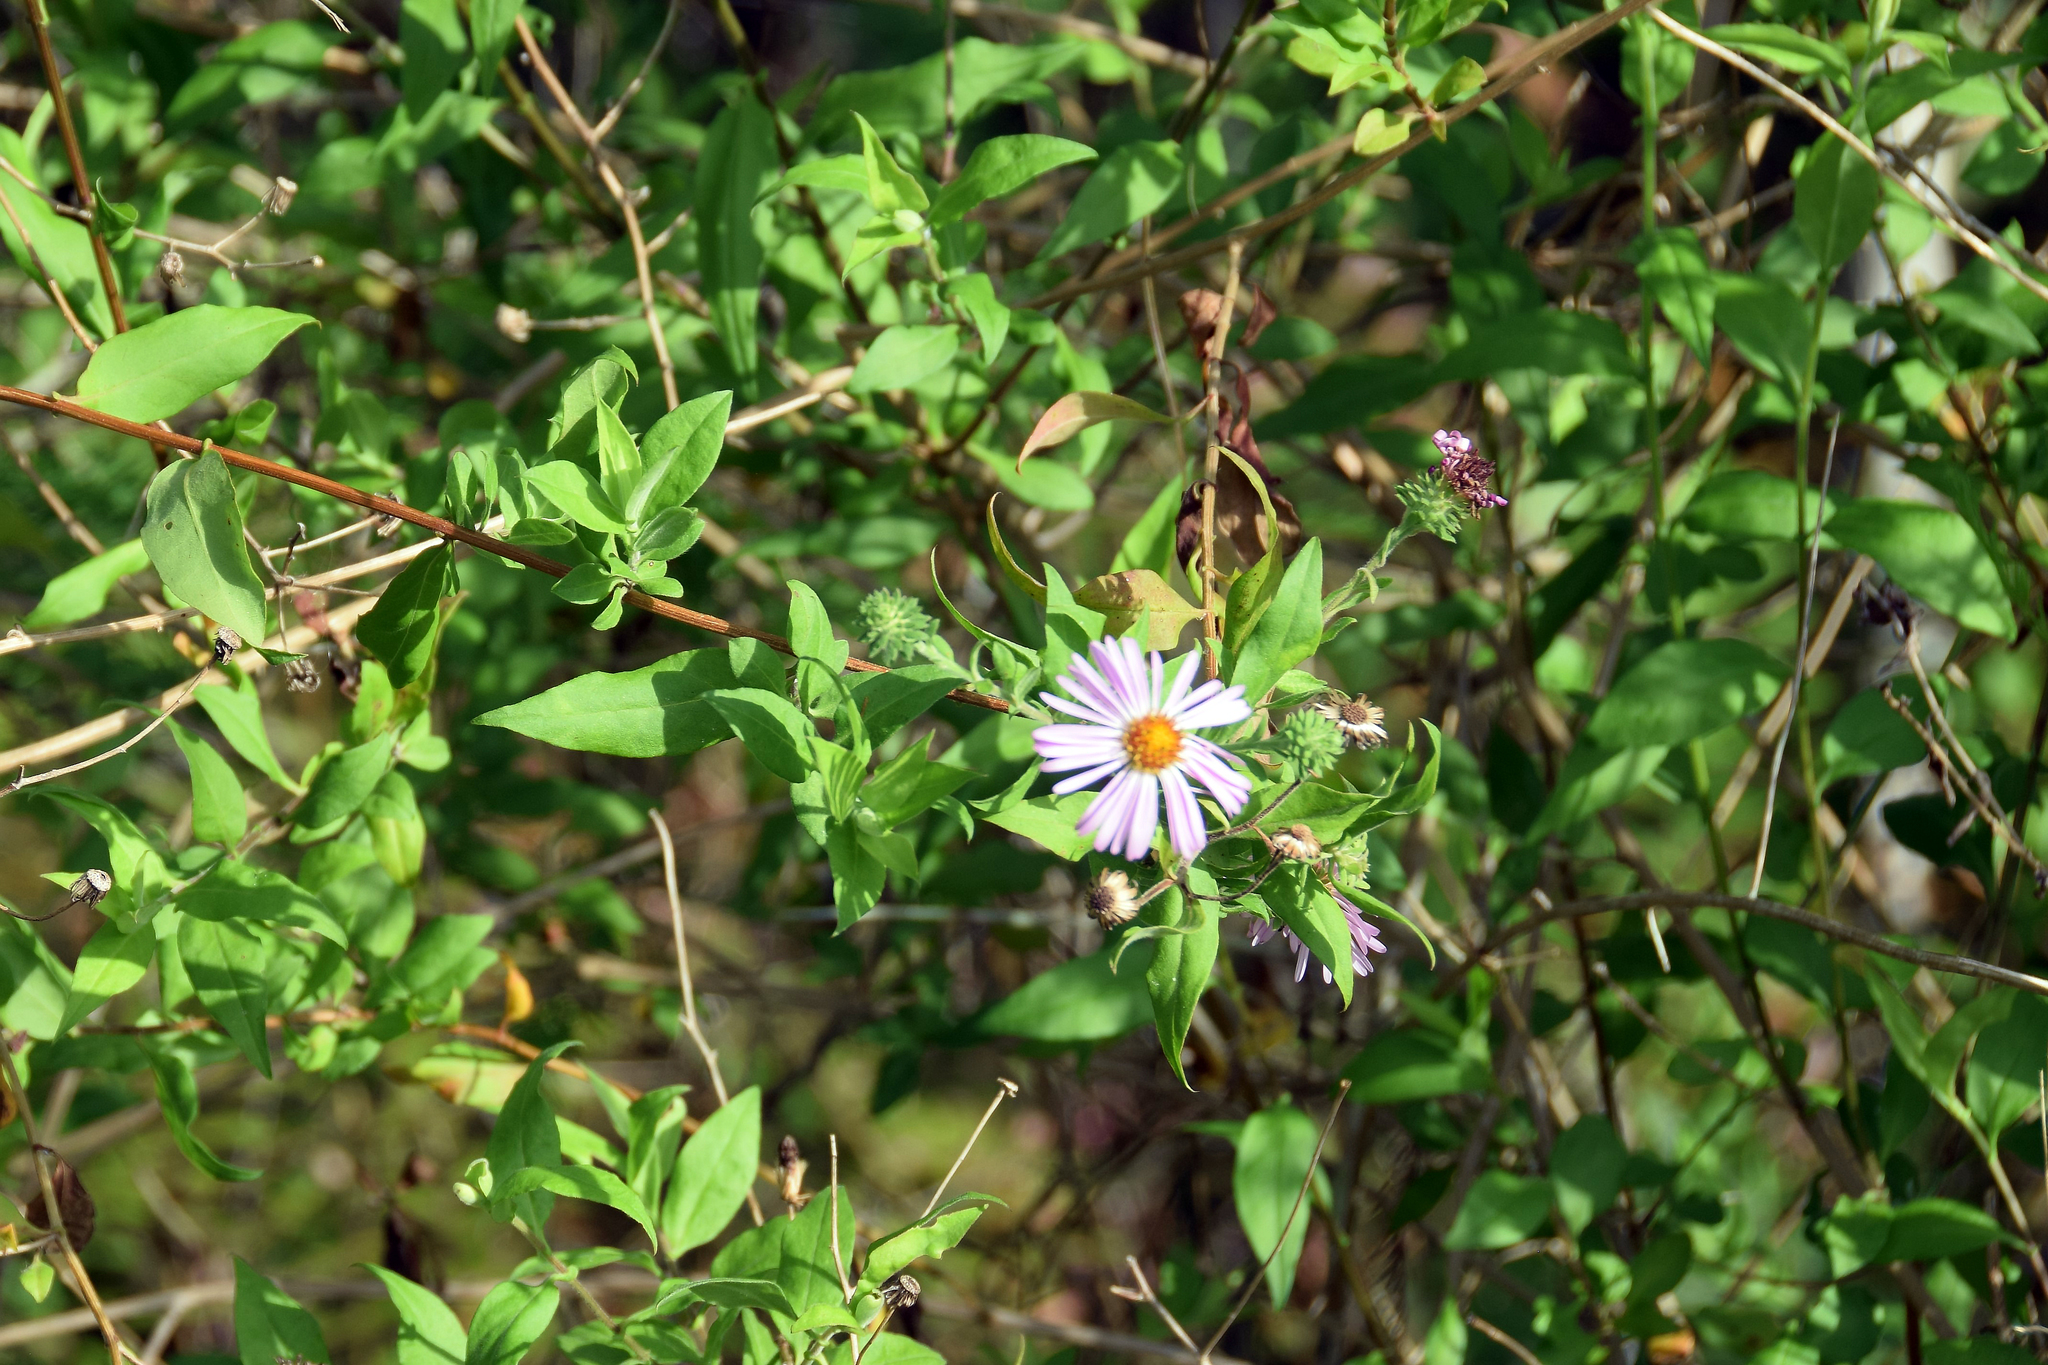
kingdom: Plantae
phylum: Tracheophyta
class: Magnoliopsida
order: Asterales
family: Asteraceae
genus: Ampelaster
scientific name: Ampelaster carolinianus
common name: Climbing aster
